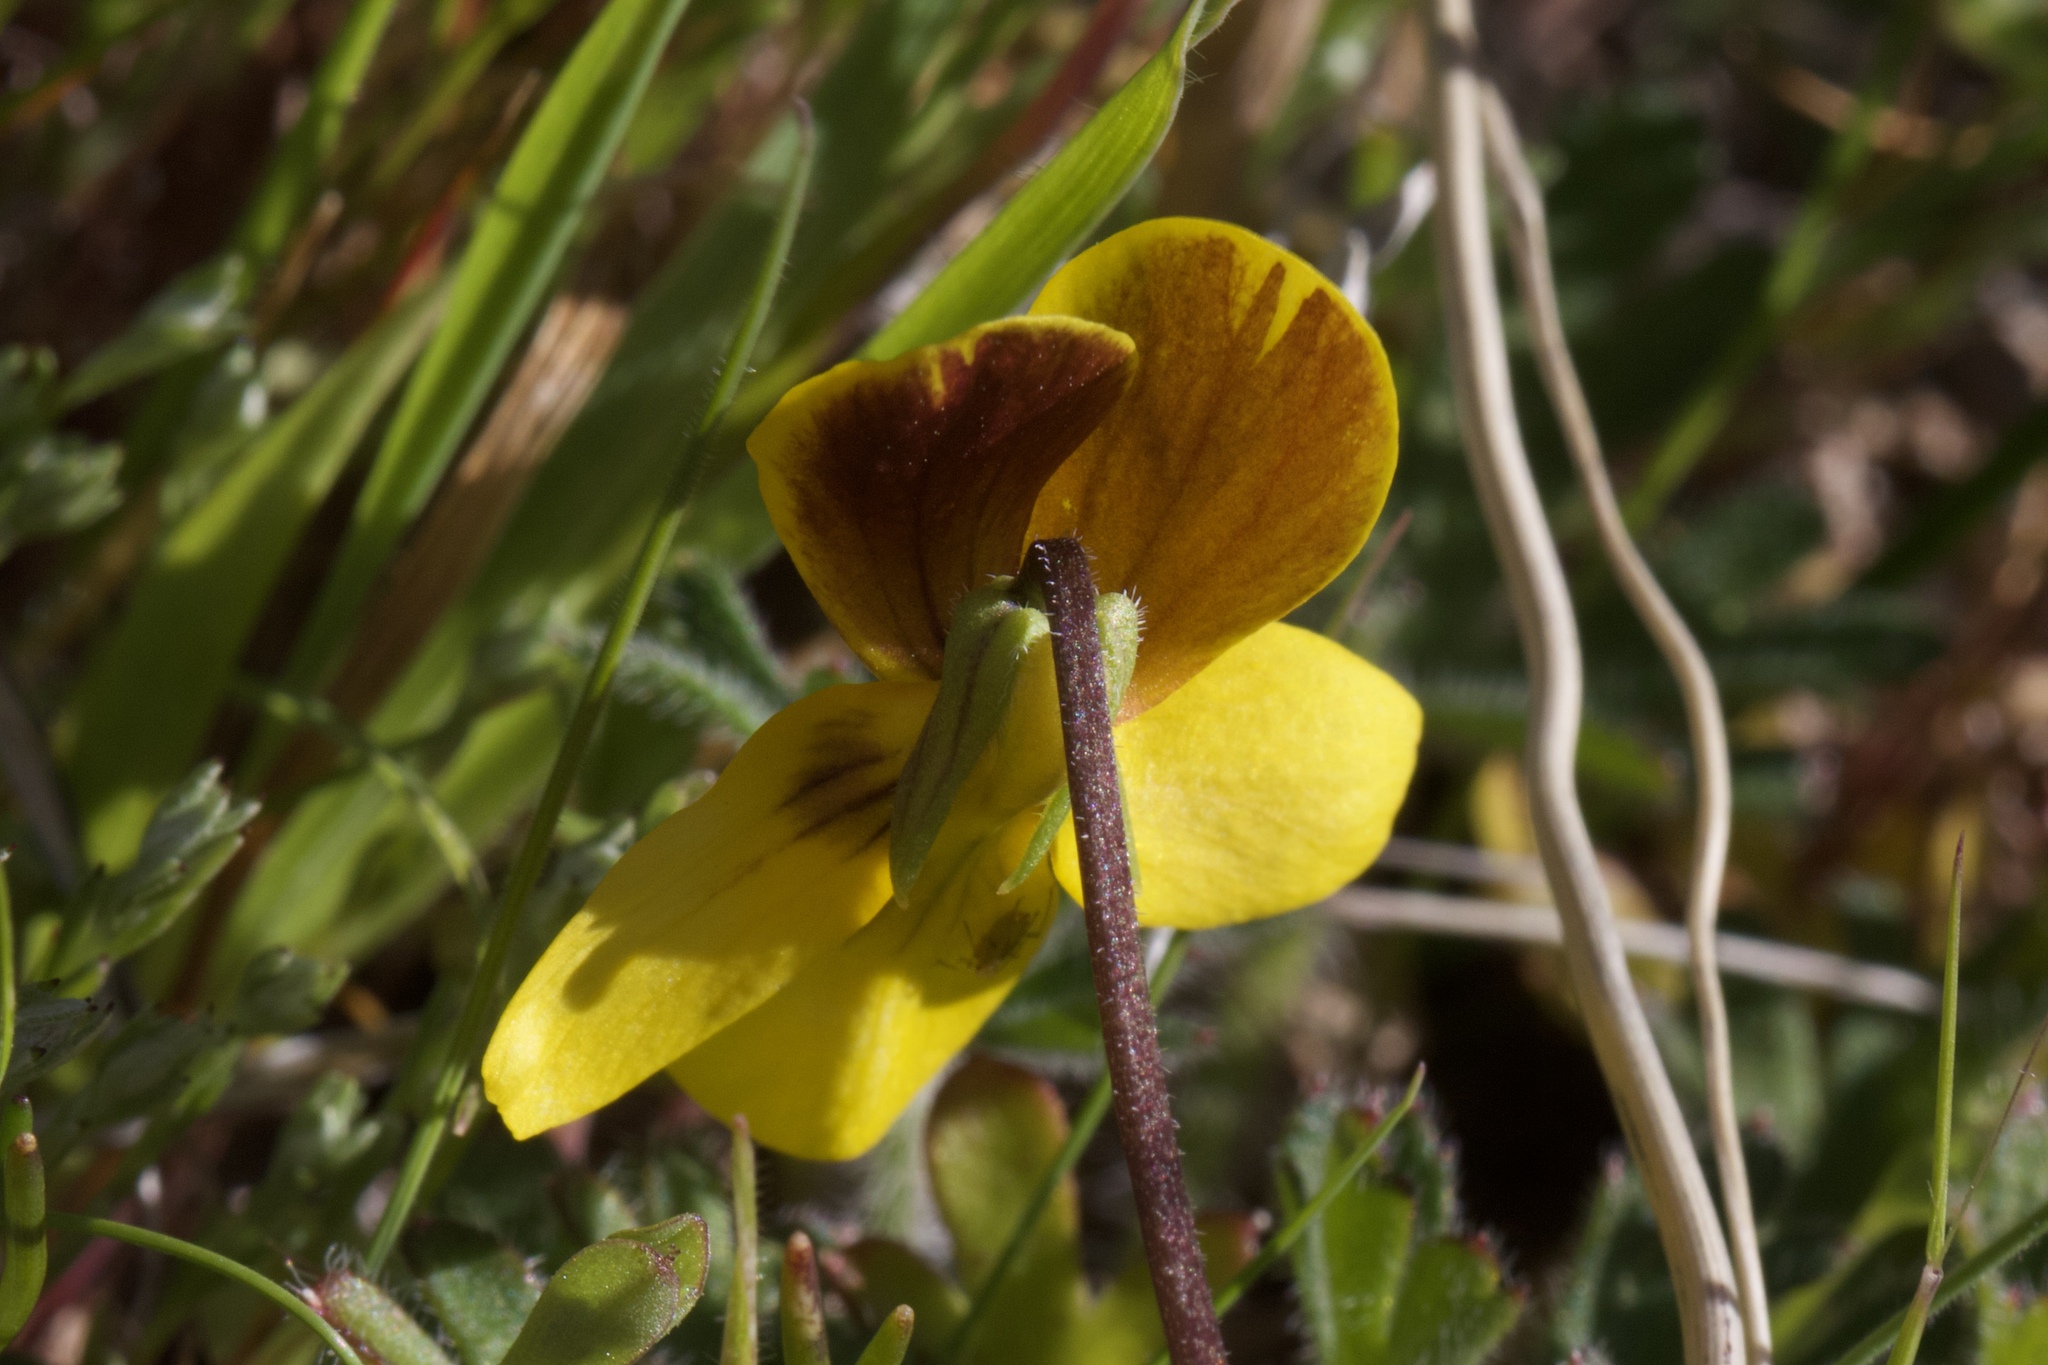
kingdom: Plantae
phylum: Tracheophyta
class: Magnoliopsida
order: Malpighiales
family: Violaceae
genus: Viola
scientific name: Viola douglasii
